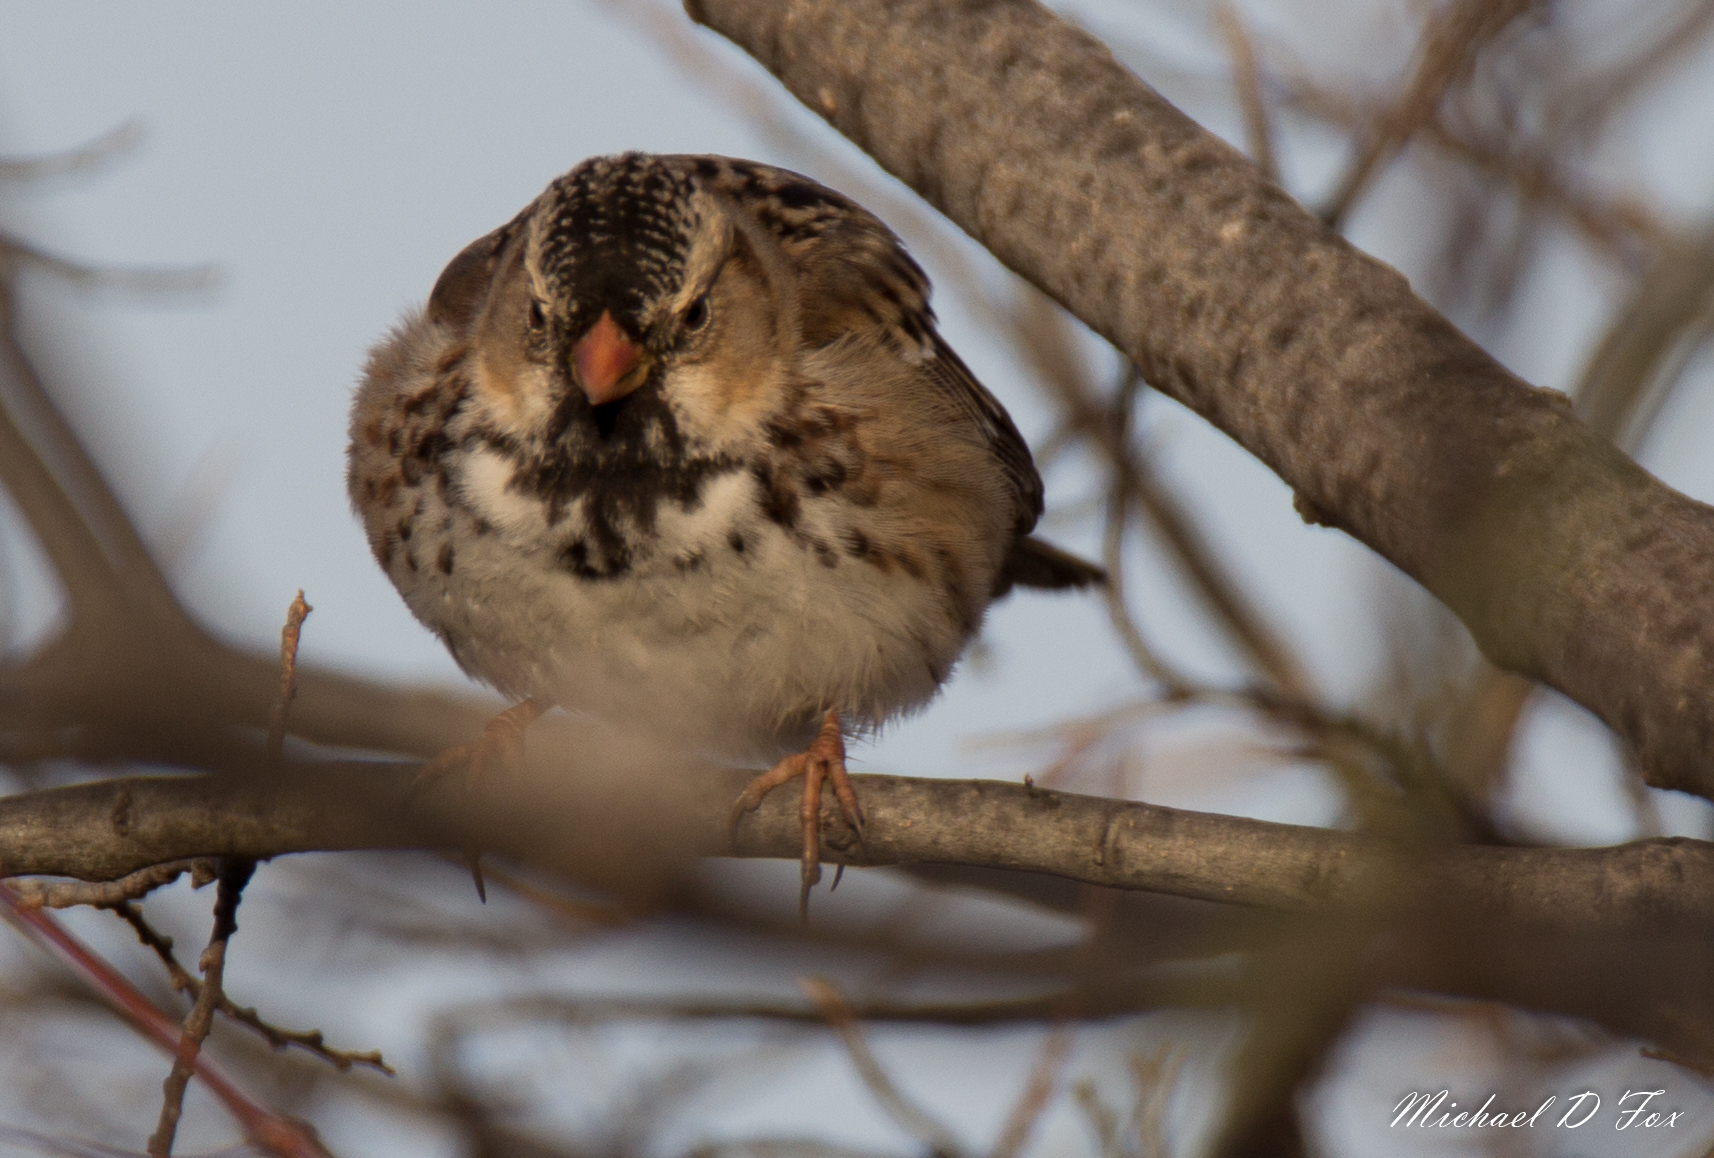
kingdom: Animalia
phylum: Chordata
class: Aves
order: Passeriformes
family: Passerellidae
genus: Zonotrichia
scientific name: Zonotrichia querula
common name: Harris's sparrow
